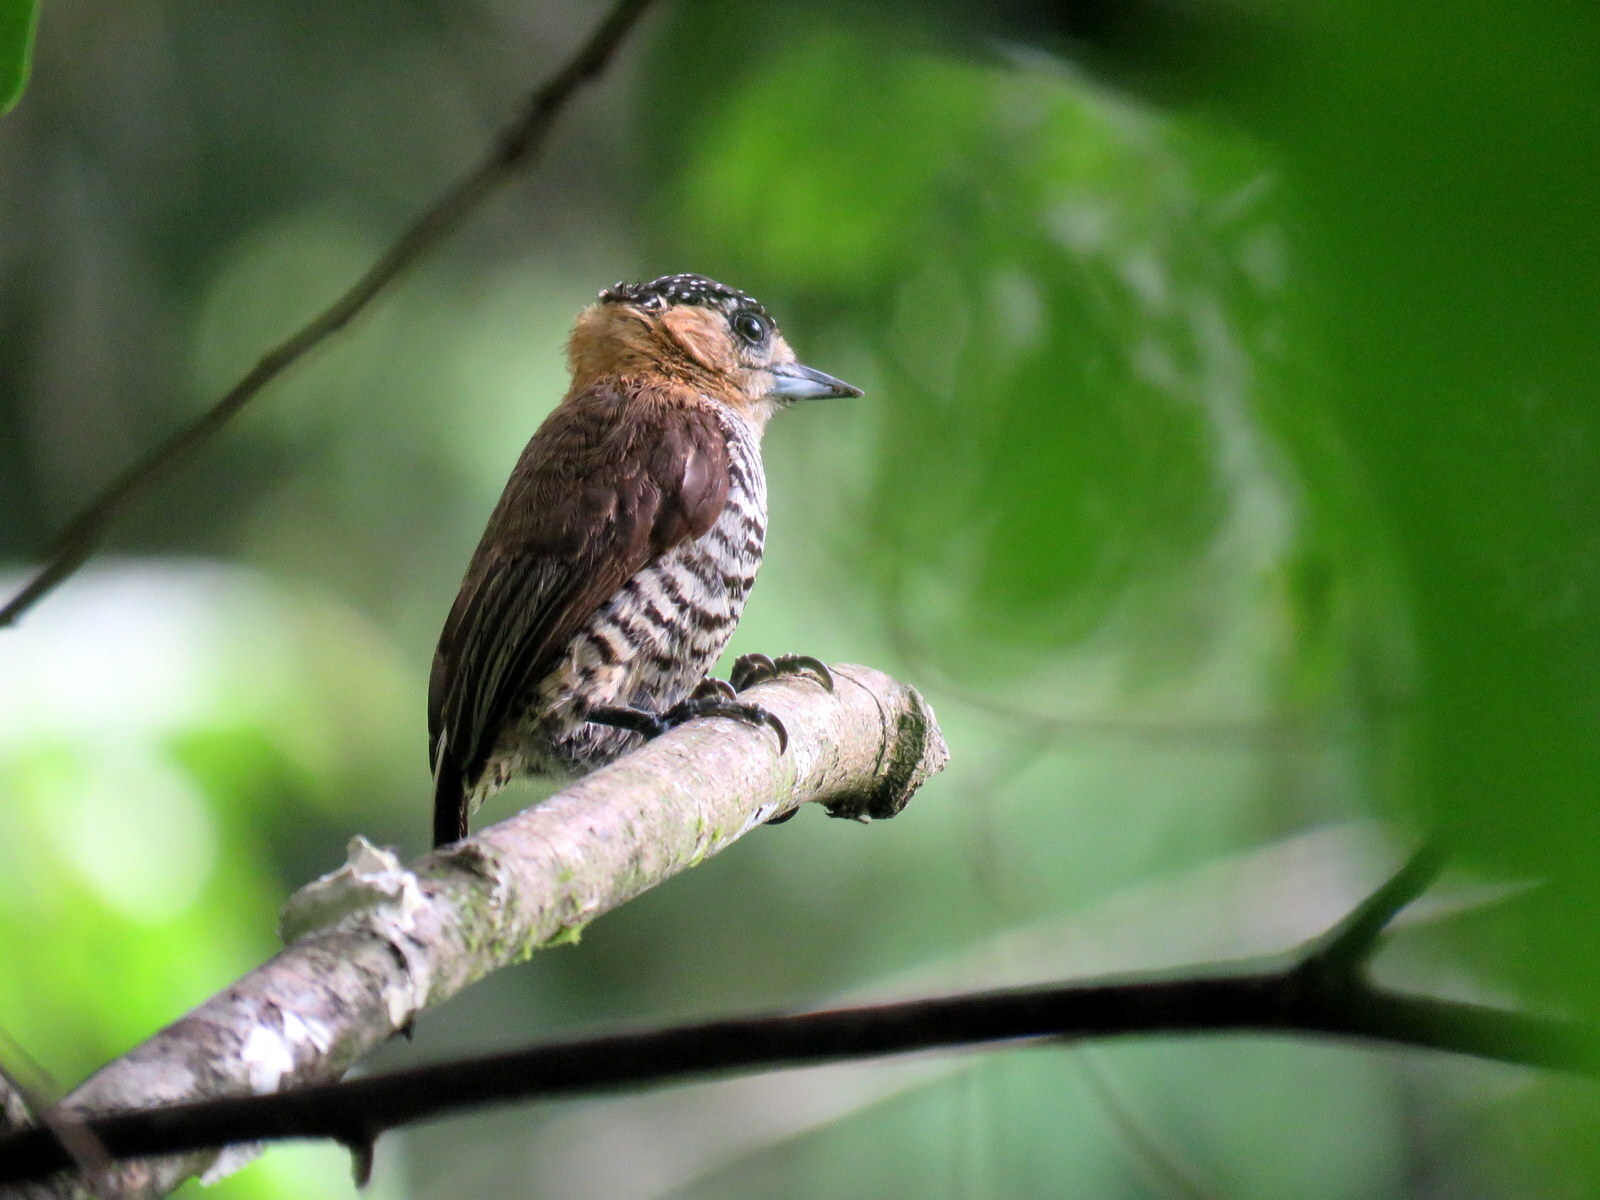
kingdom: Animalia
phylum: Chordata
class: Aves
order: Piciformes
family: Picidae
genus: Picumnus
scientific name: Picumnus temminckii
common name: Ochre-collared piculet
